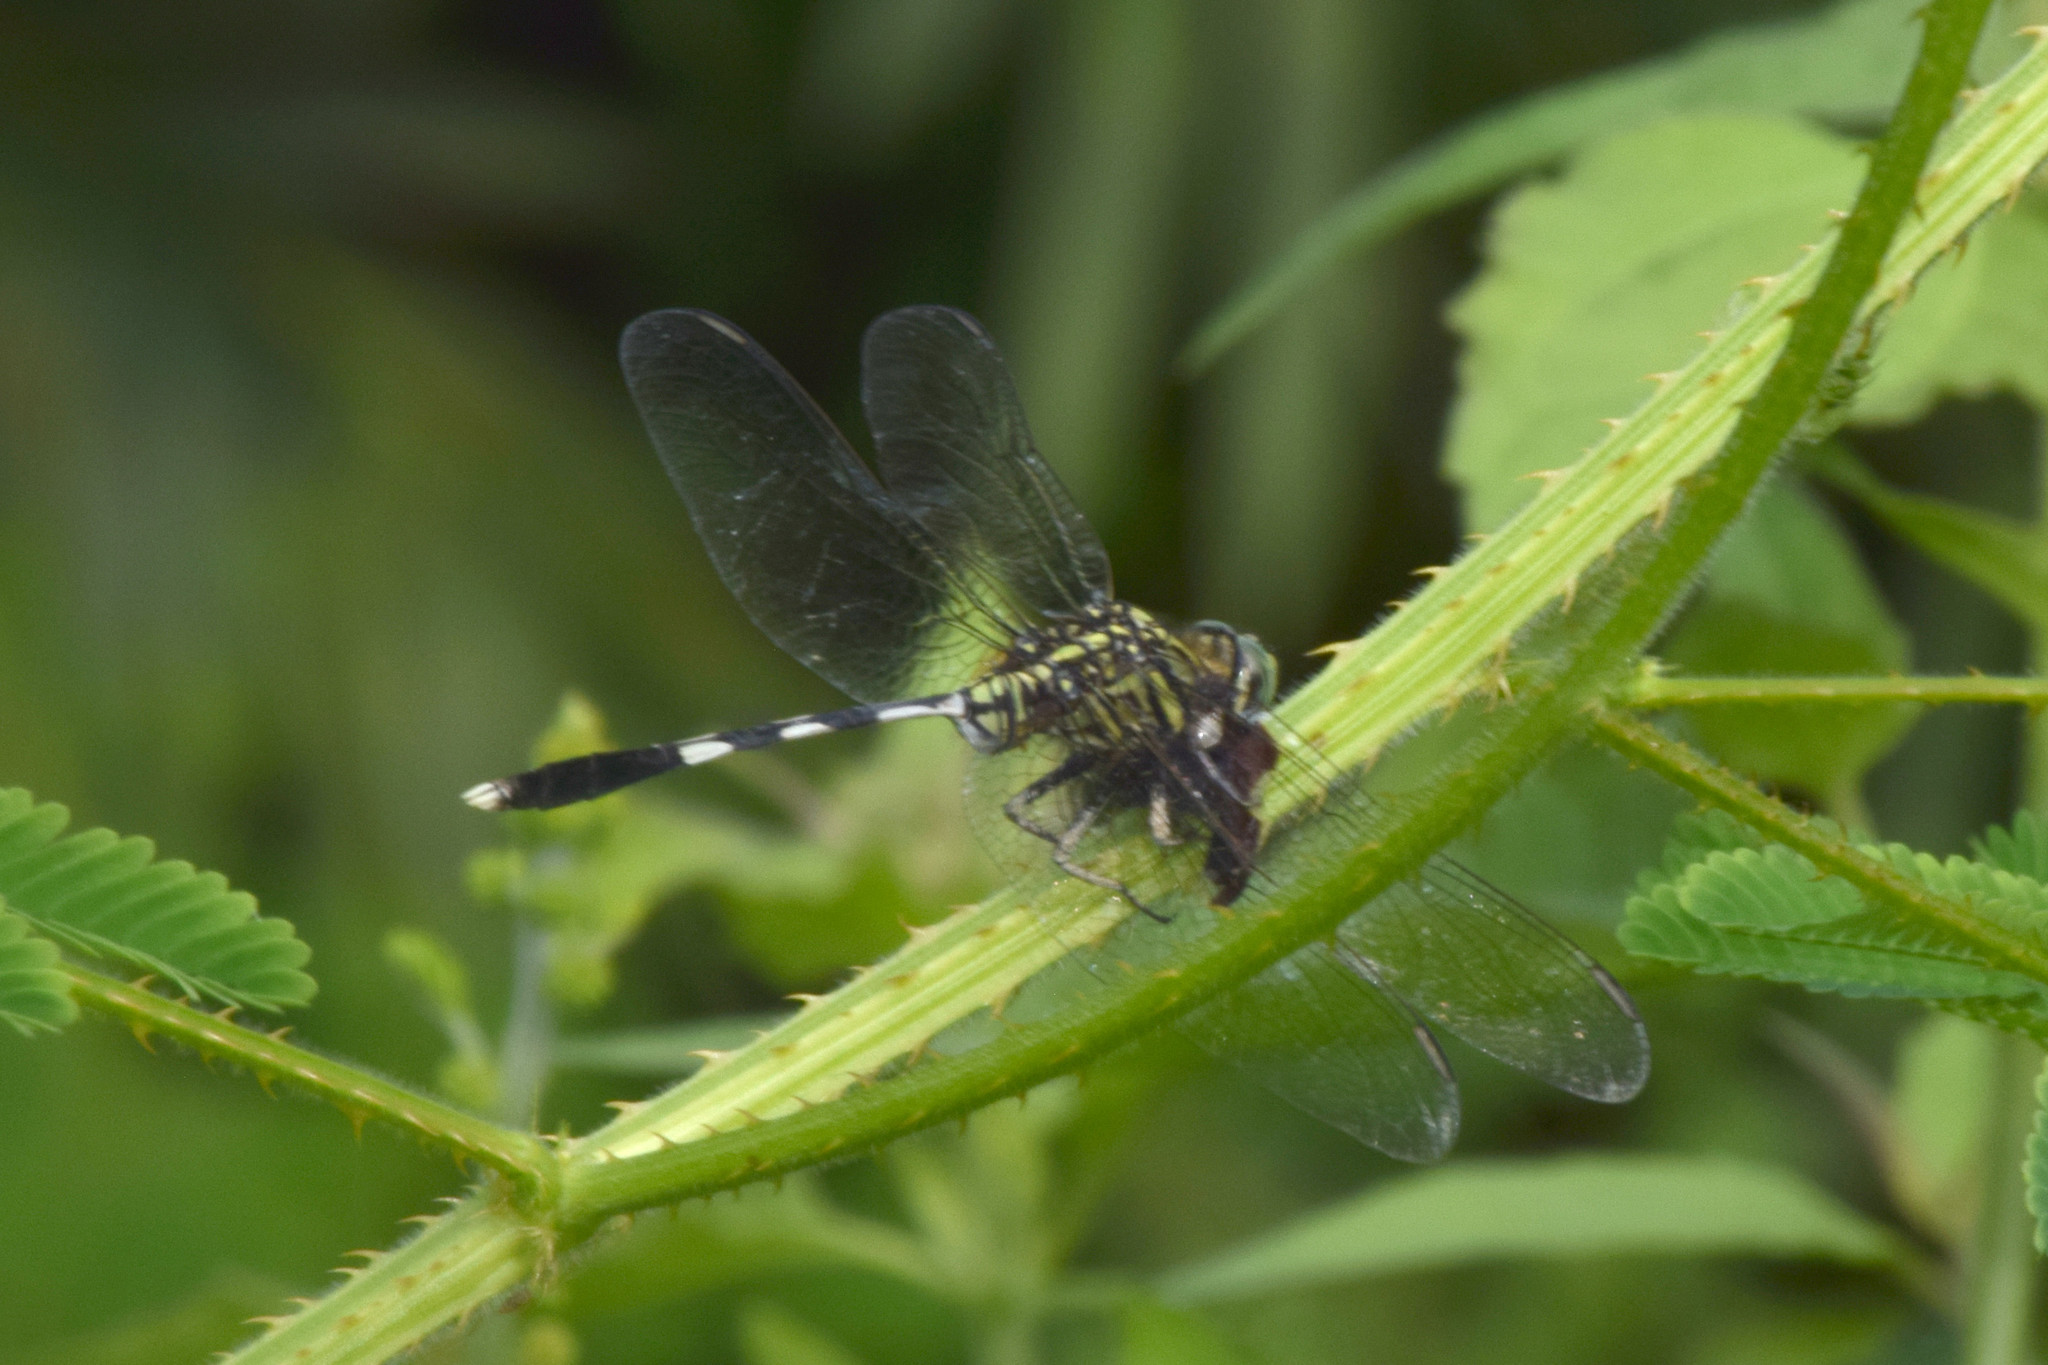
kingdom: Animalia
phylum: Arthropoda
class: Insecta
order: Odonata
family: Libellulidae
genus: Orthetrum
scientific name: Orthetrum sabina
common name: Slender skimmer
